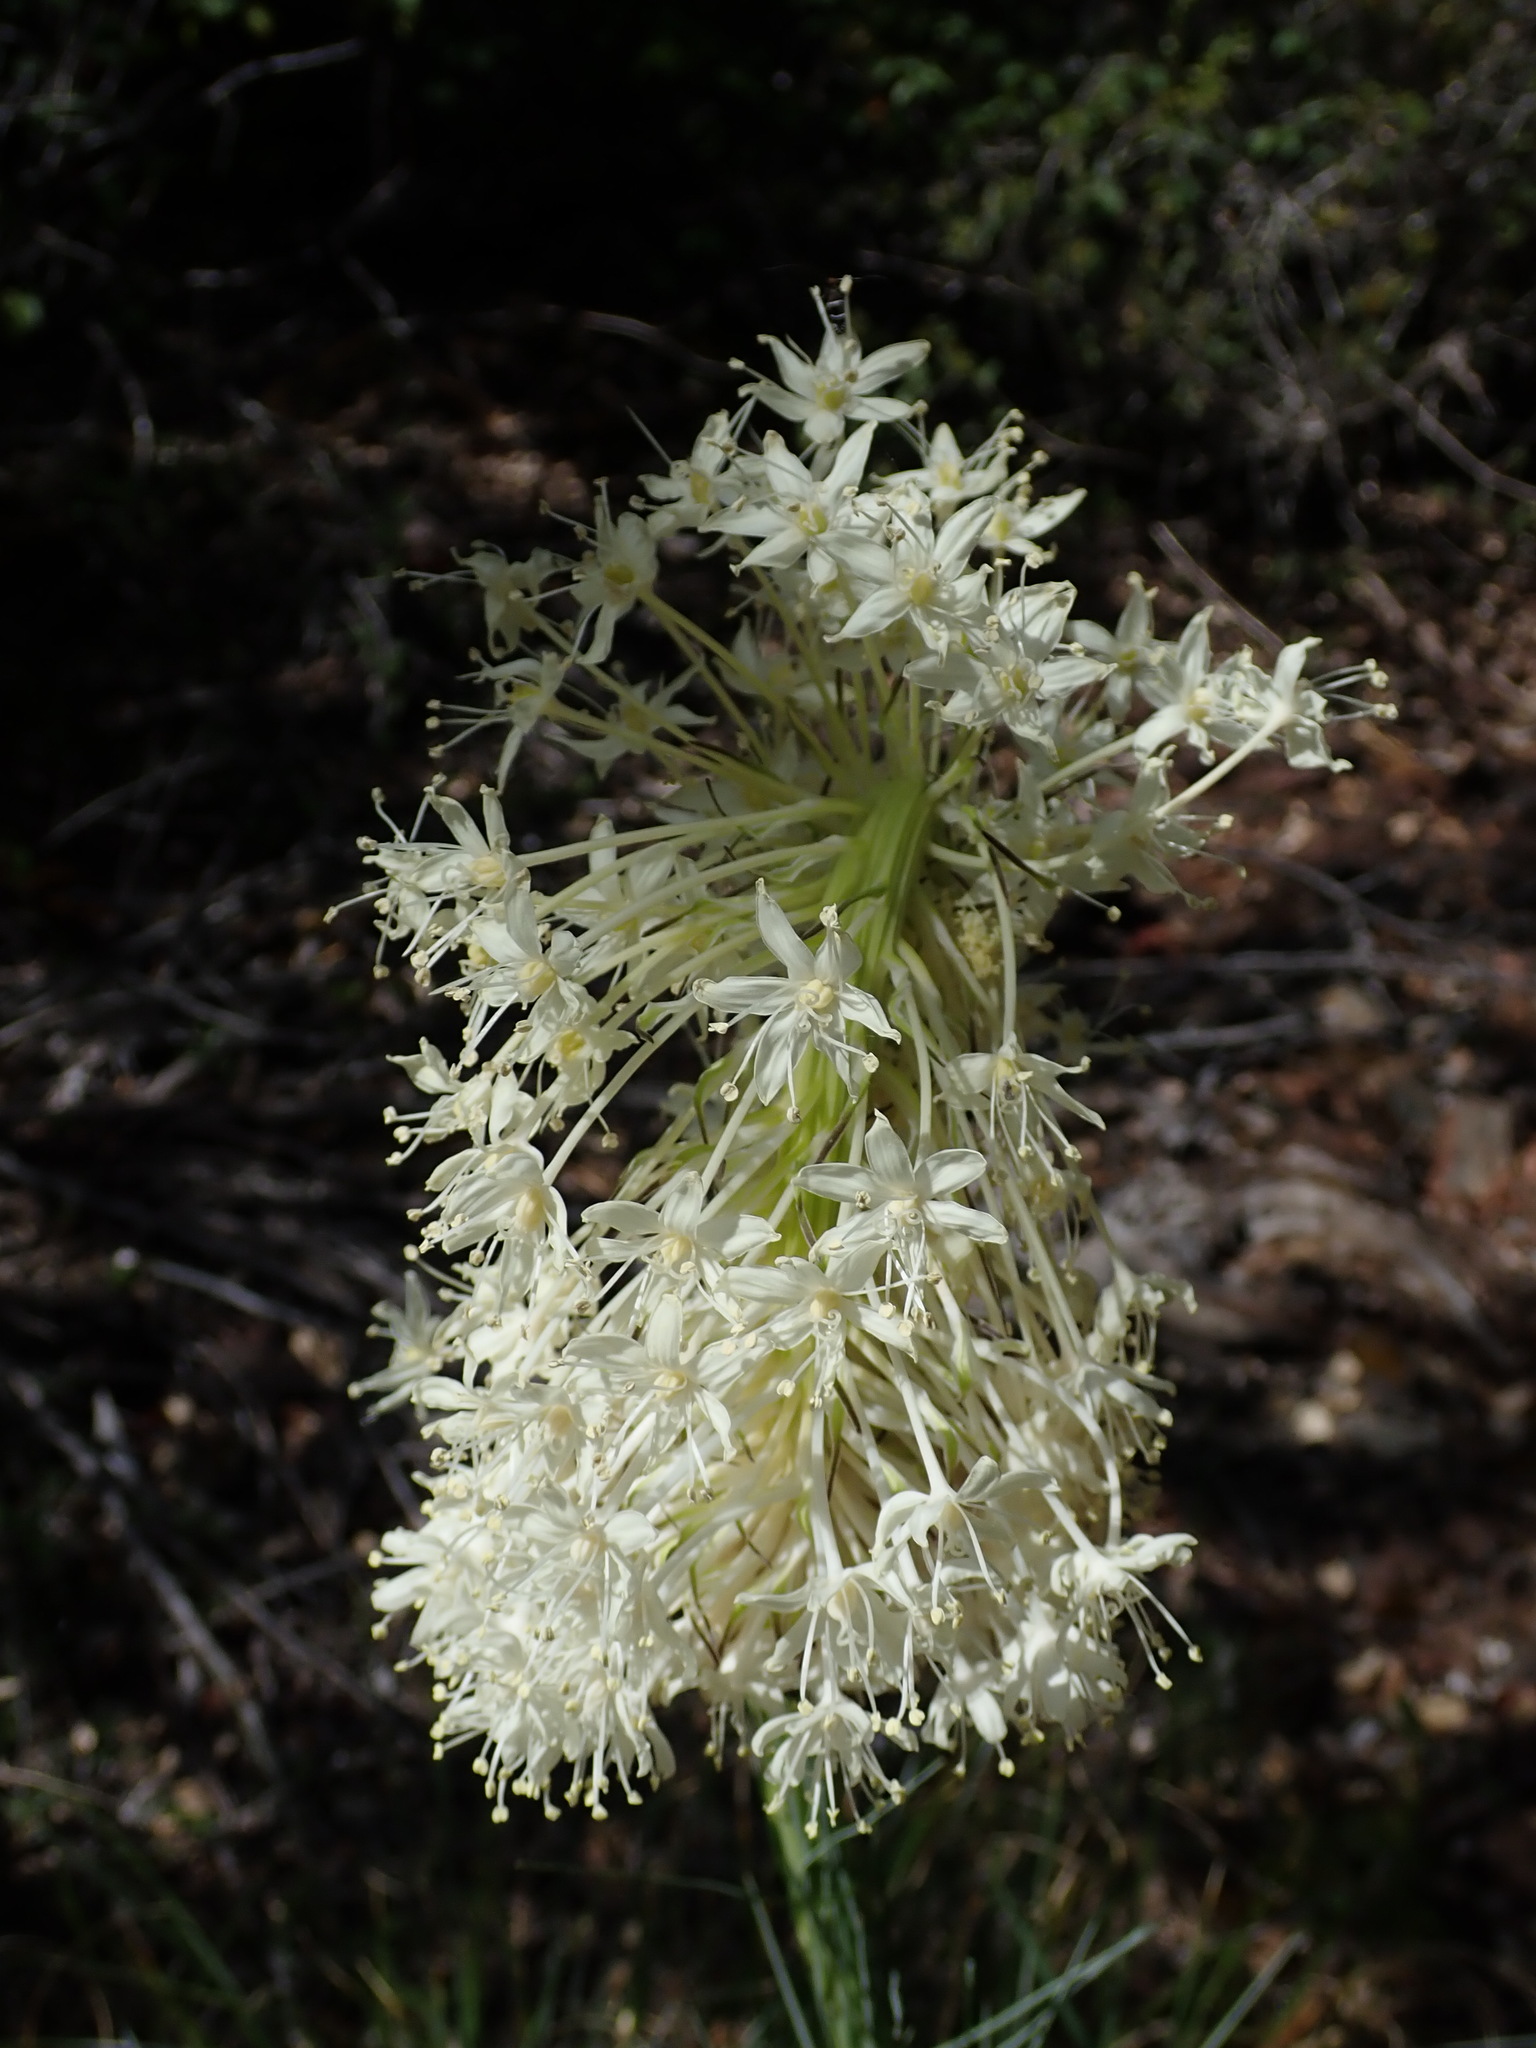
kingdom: Plantae
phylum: Tracheophyta
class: Liliopsida
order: Liliales
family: Melanthiaceae
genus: Xerophyllum
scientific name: Xerophyllum tenax
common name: Bear-grass
